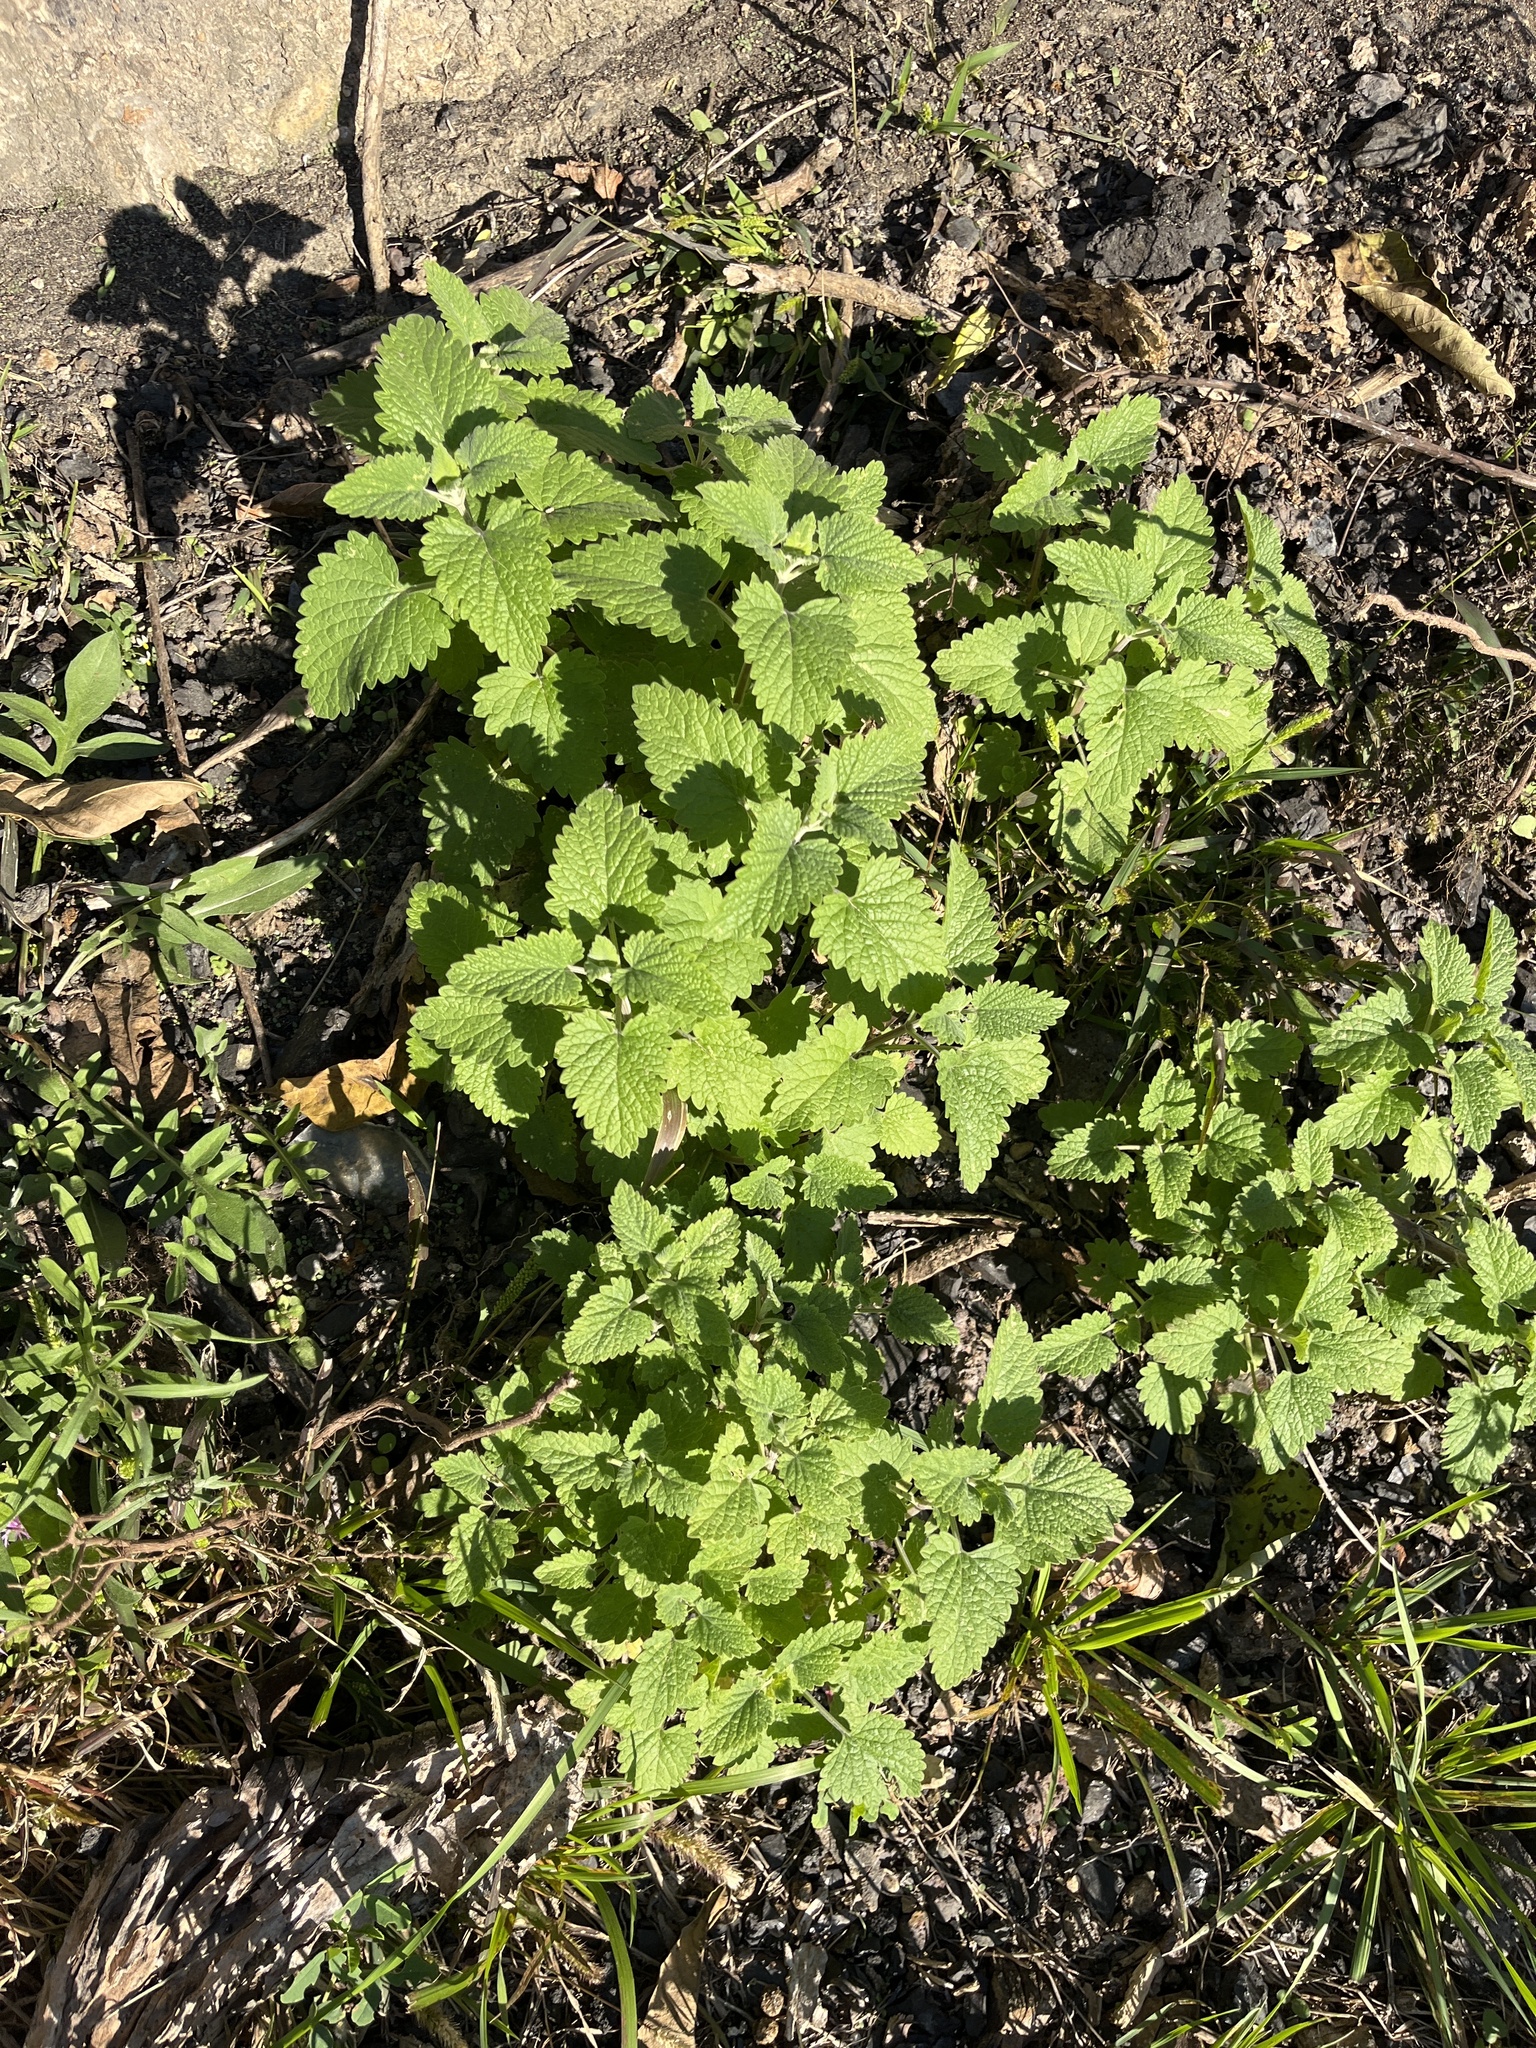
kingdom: Plantae
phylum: Tracheophyta
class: Magnoliopsida
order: Lamiales
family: Lamiaceae
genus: Nepeta
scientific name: Nepeta cataria
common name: Catnip
